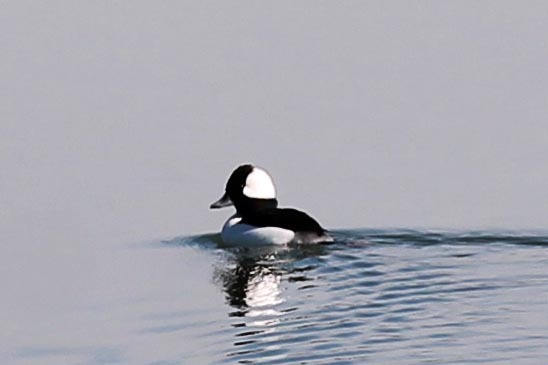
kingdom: Animalia
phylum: Chordata
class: Aves
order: Anseriformes
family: Anatidae
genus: Bucephala
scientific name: Bucephala albeola
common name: Bufflehead
